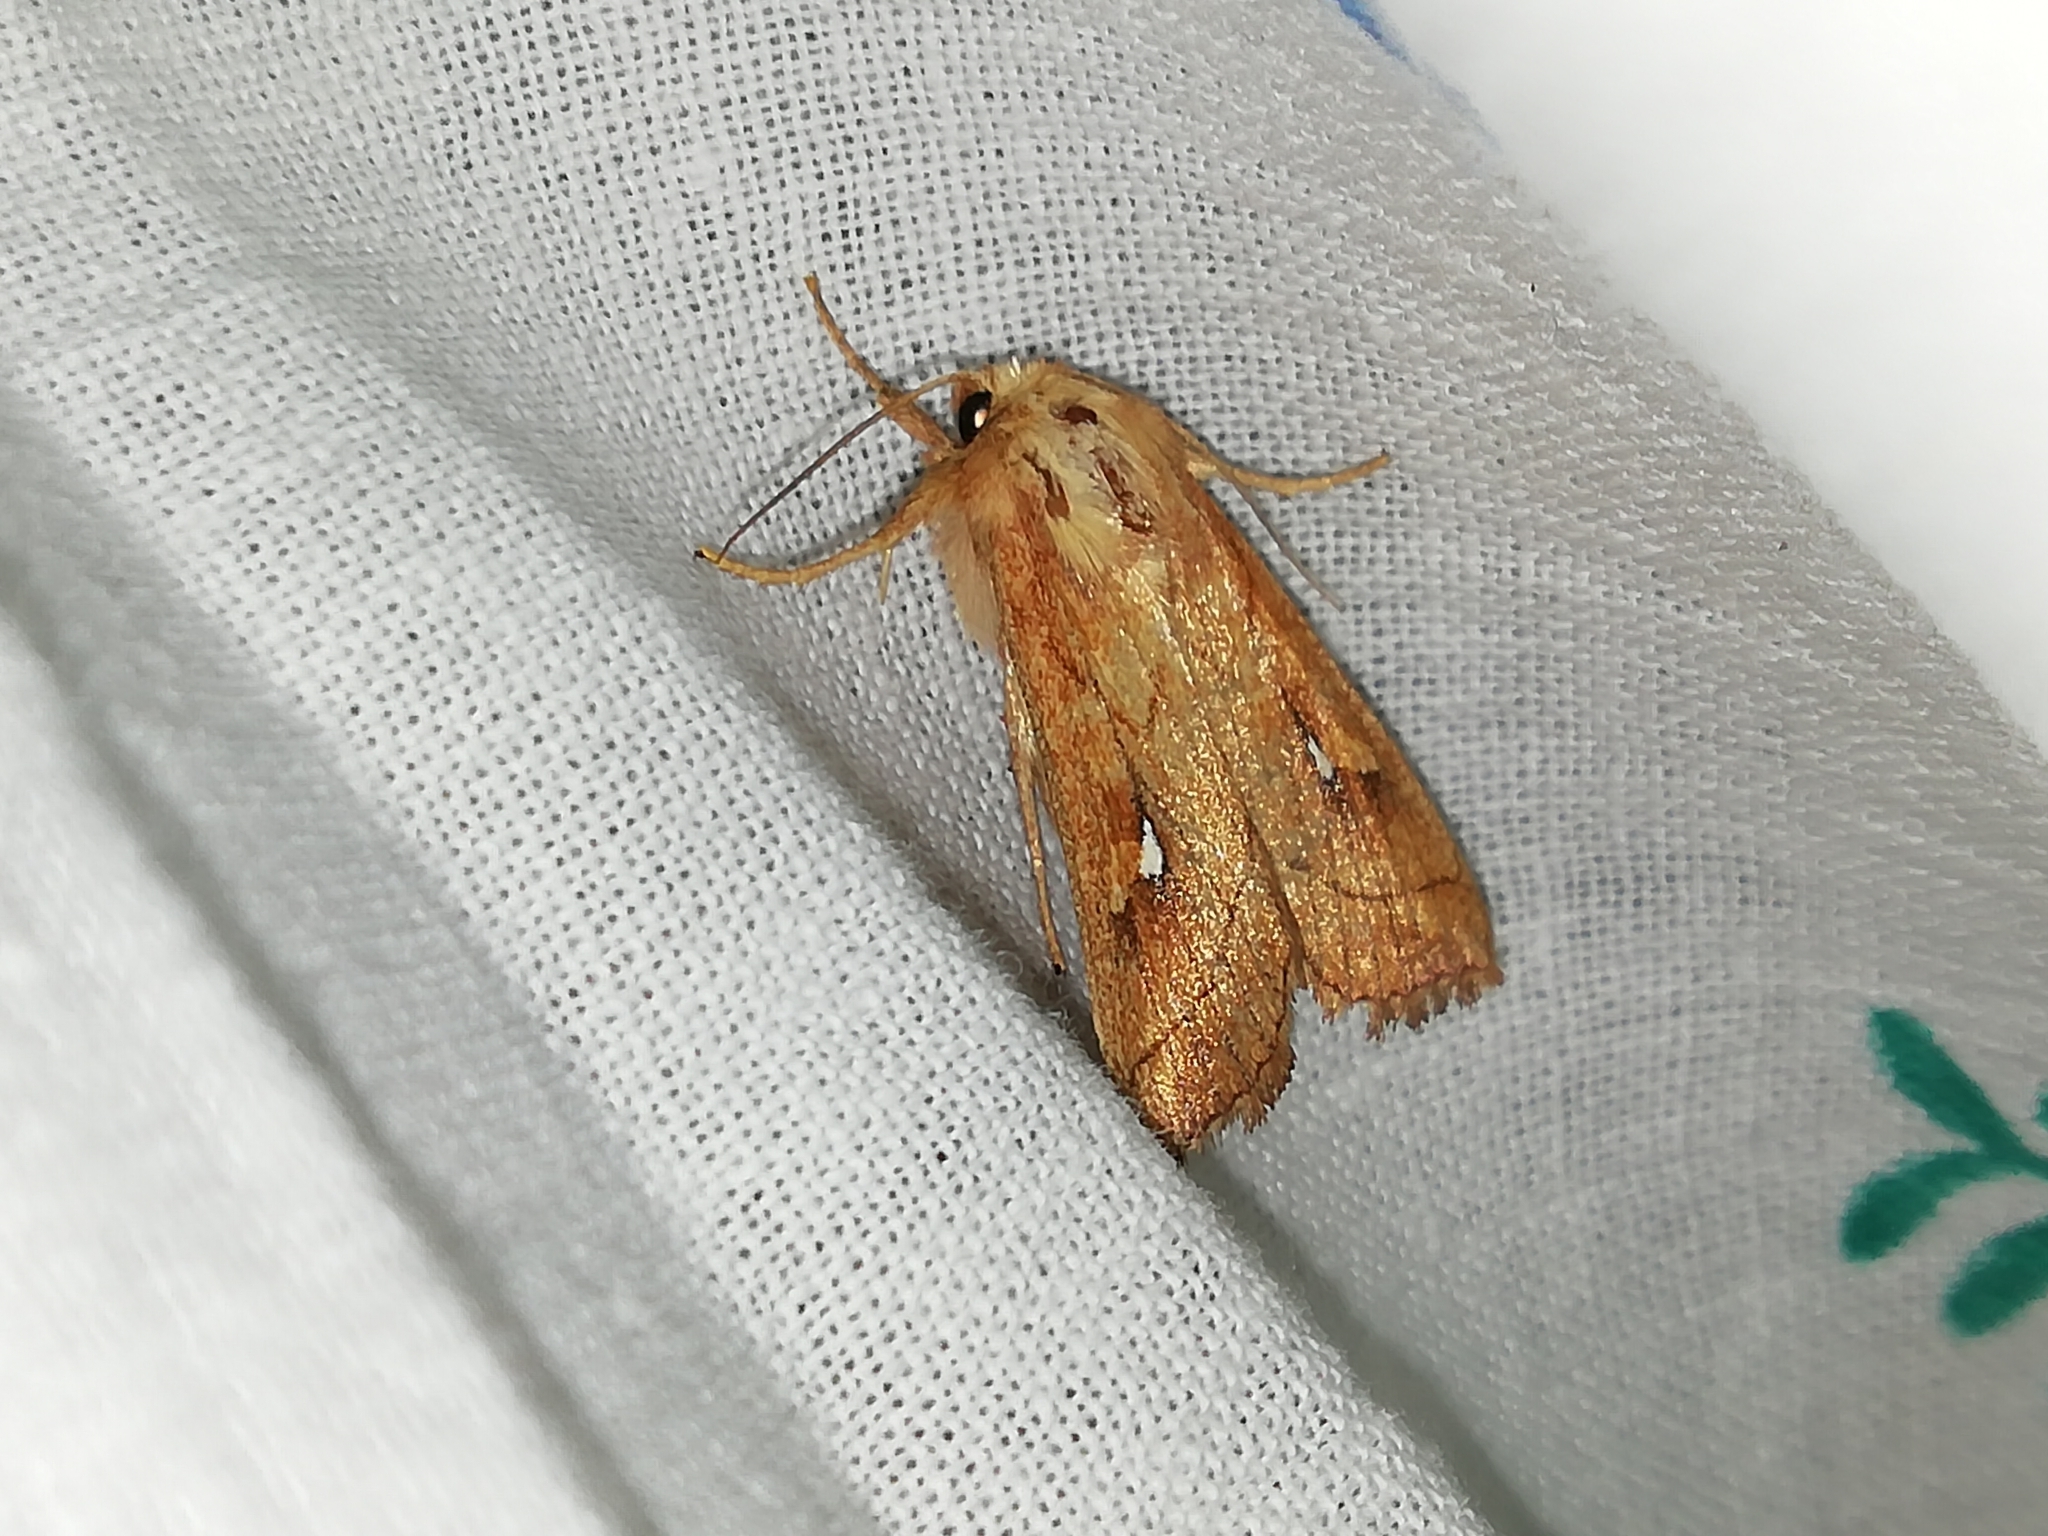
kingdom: Animalia
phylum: Arthropoda
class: Insecta
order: Lepidoptera
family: Noctuidae
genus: Mythimna
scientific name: Mythimna conigera
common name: Brown-line bright-eye
